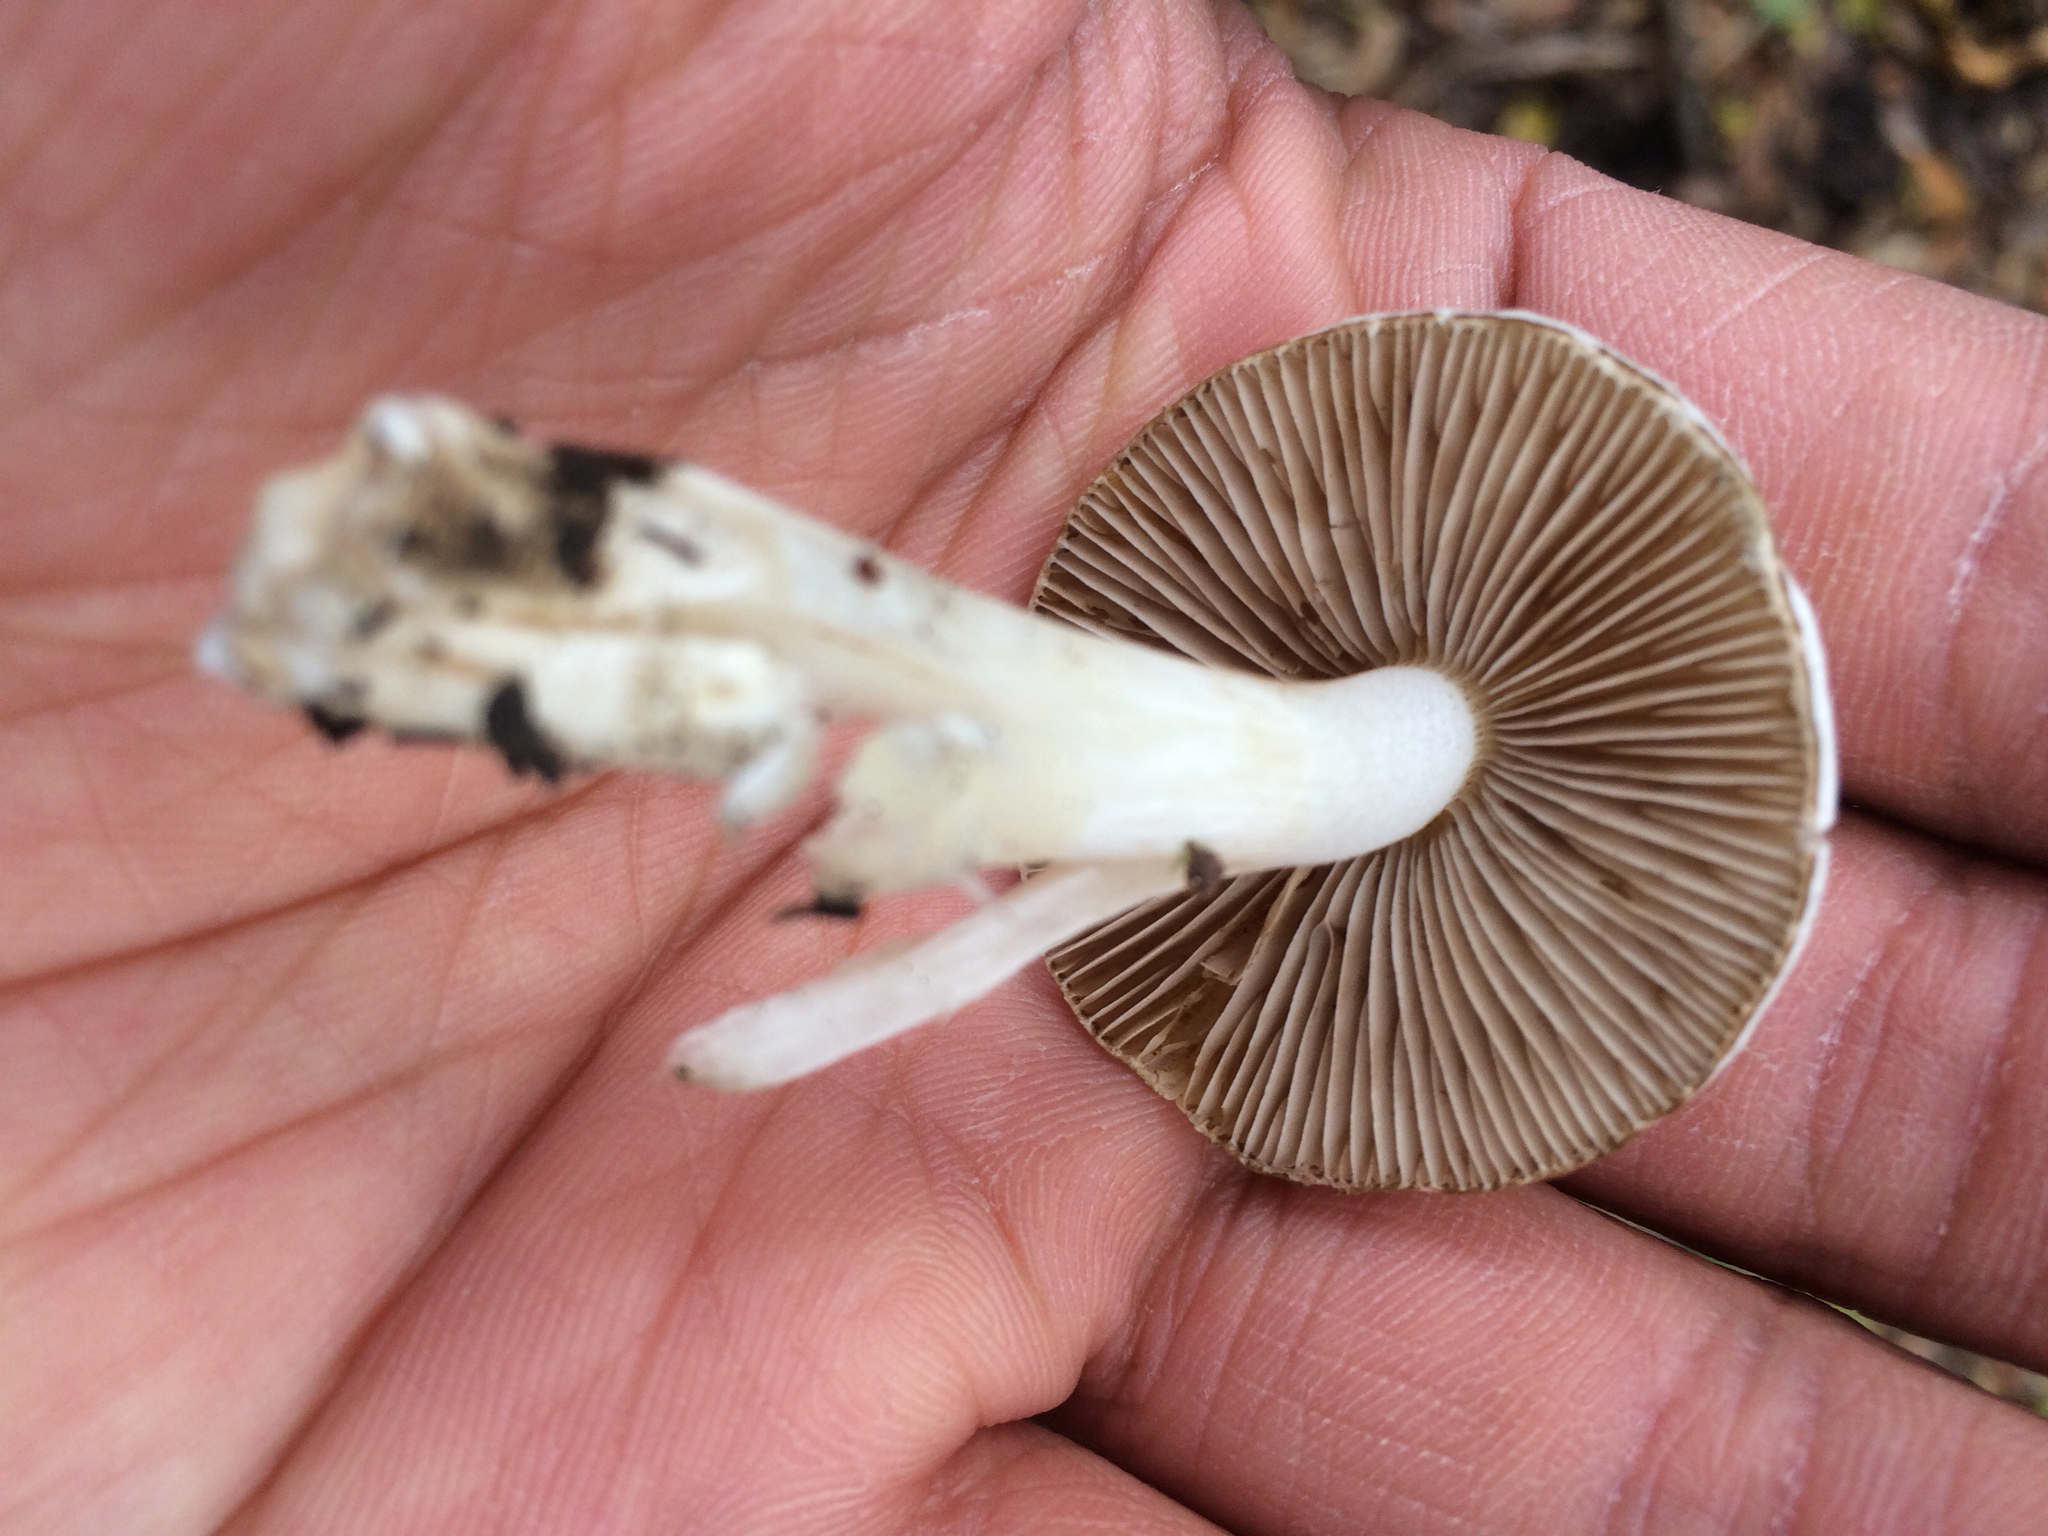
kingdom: Fungi
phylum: Basidiomycota
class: Agaricomycetes
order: Agaricales
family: Inocybaceae
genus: Inocybe
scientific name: Inocybe insinuata
